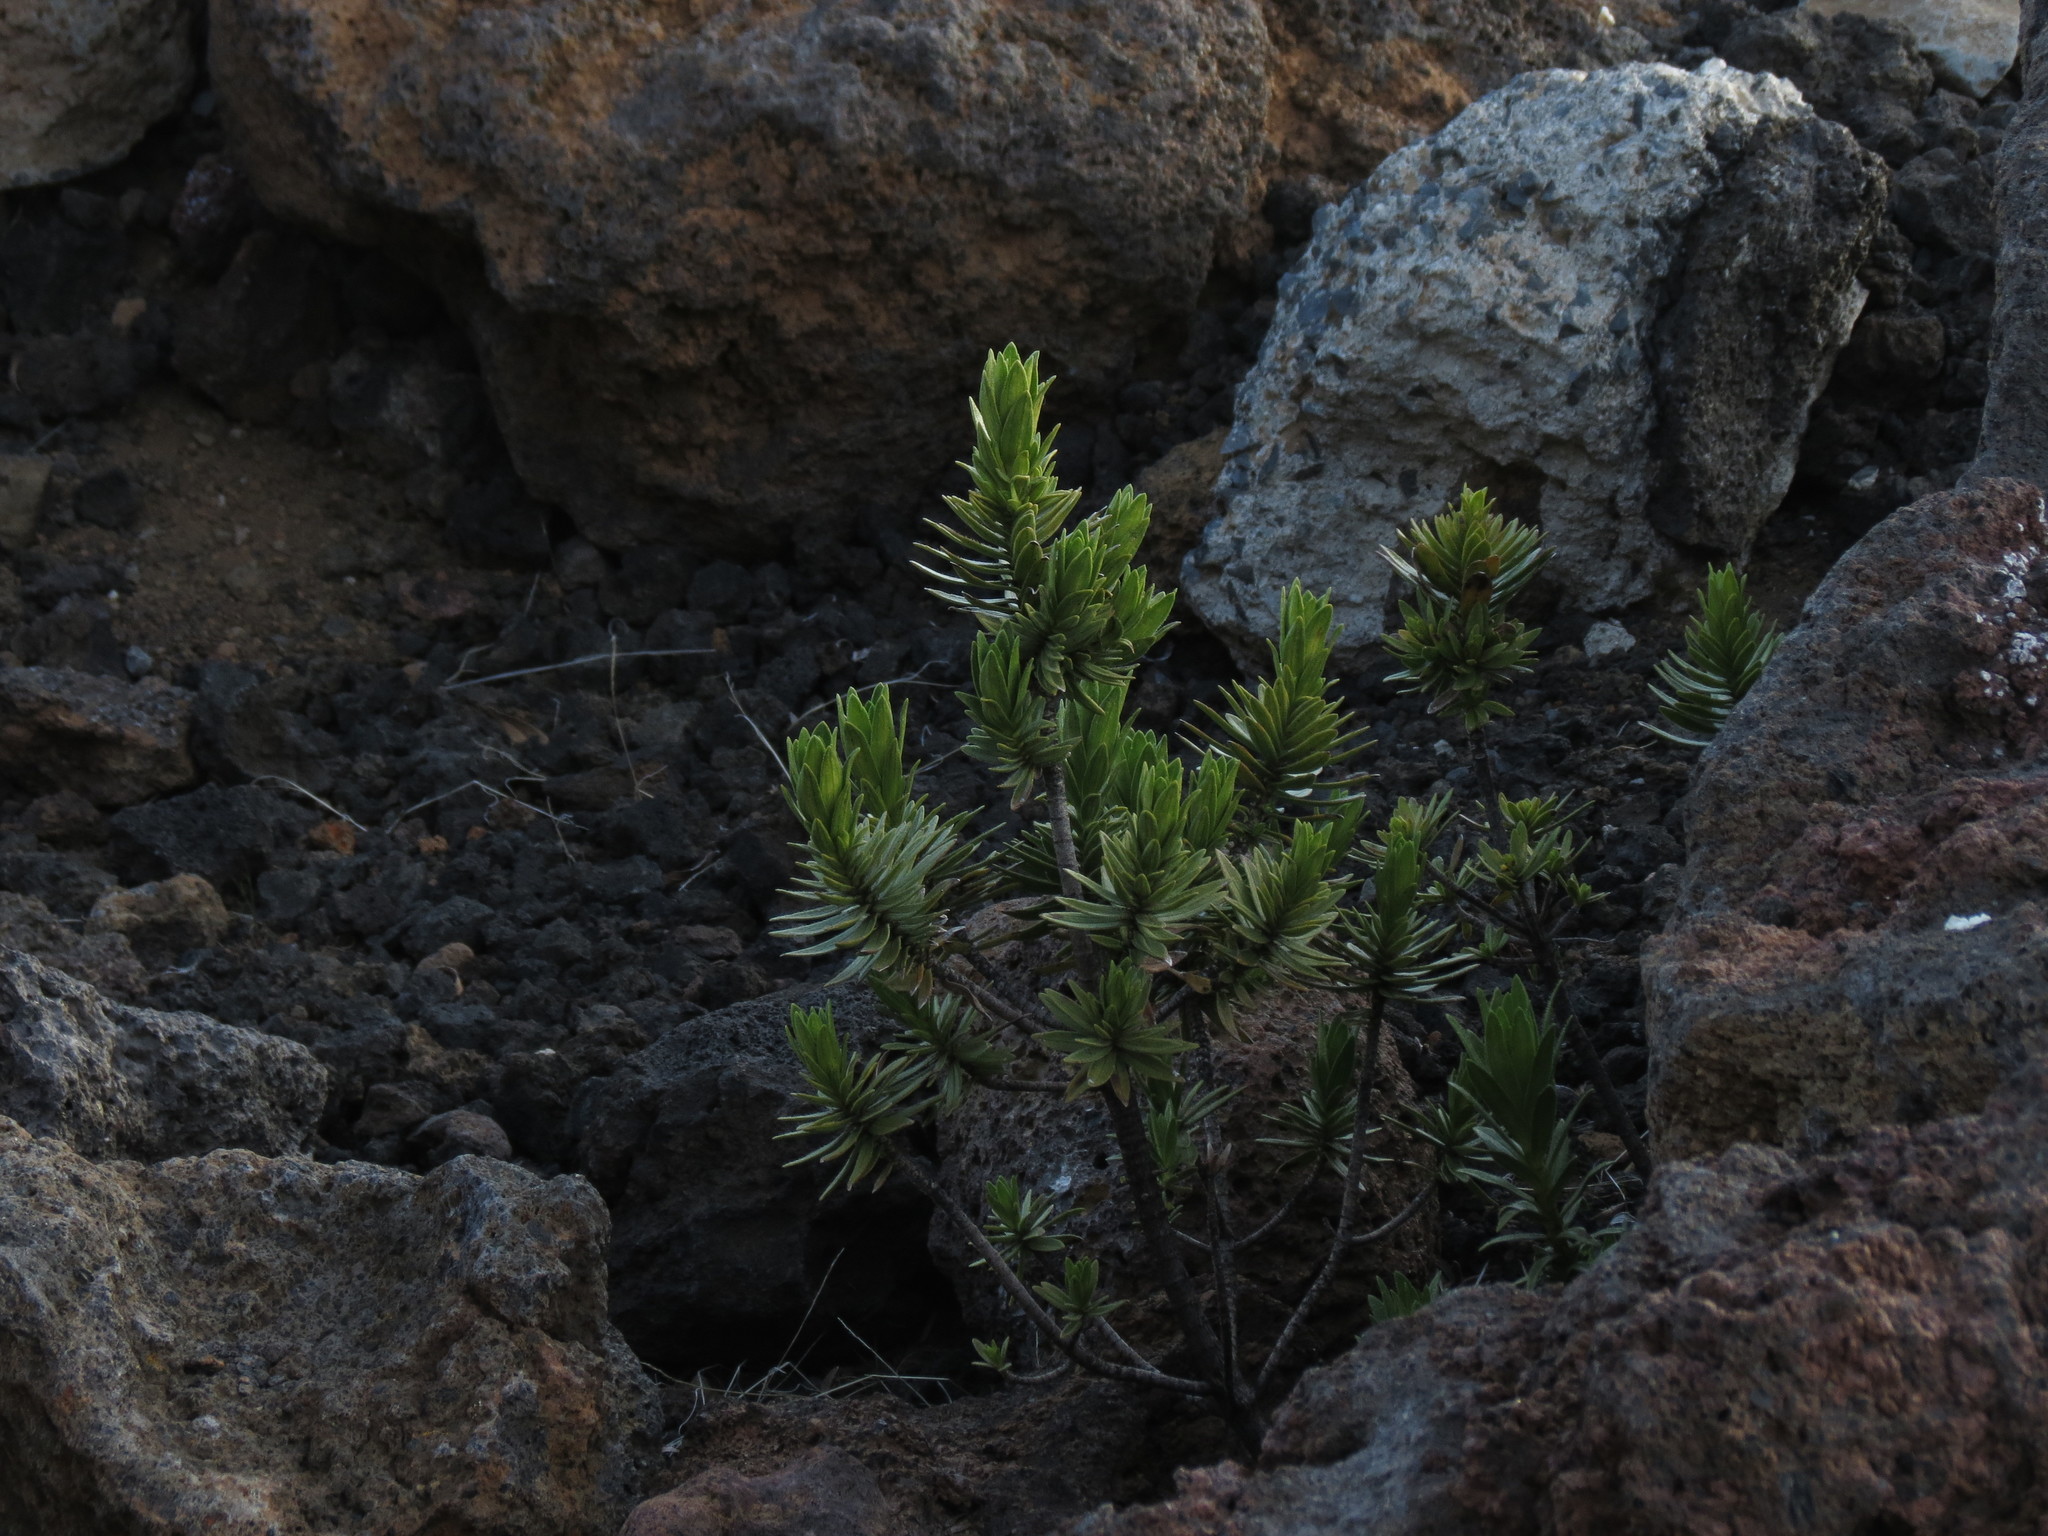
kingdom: Plantae
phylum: Tracheophyta
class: Magnoliopsida
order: Asterales
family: Asteraceae
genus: Dubautia
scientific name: Dubautia menziesii
